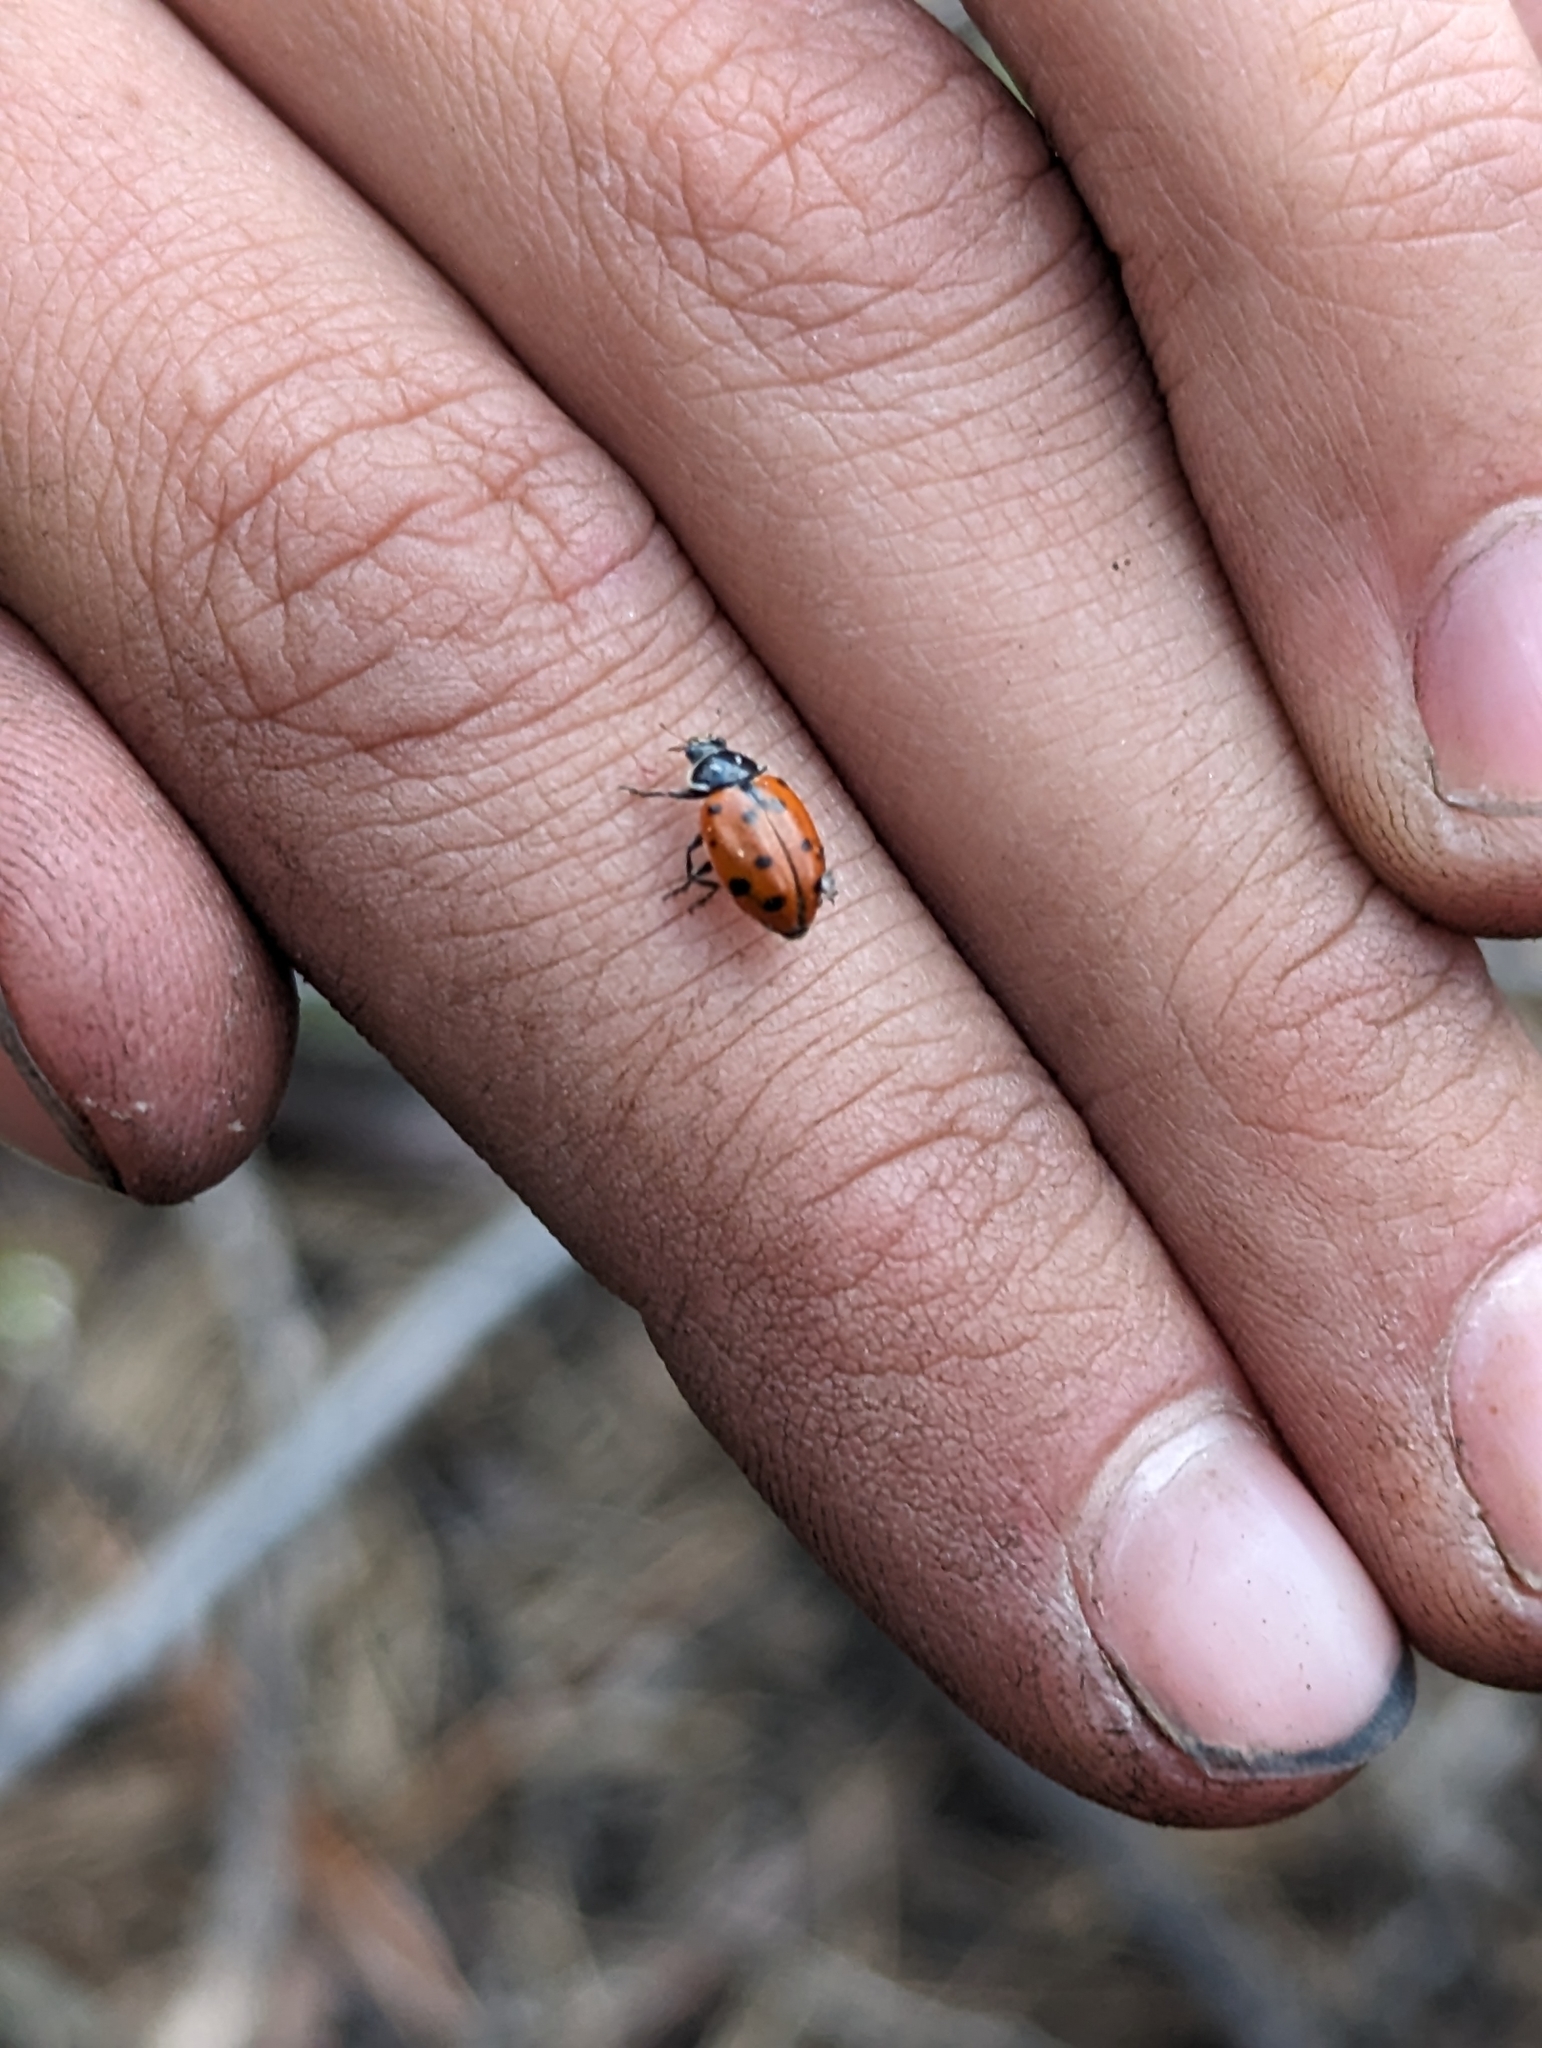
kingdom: Animalia
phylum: Arthropoda
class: Insecta
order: Coleoptera
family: Coccinellidae
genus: Hippodamia
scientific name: Hippodamia convergens
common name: Convergent lady beetle
